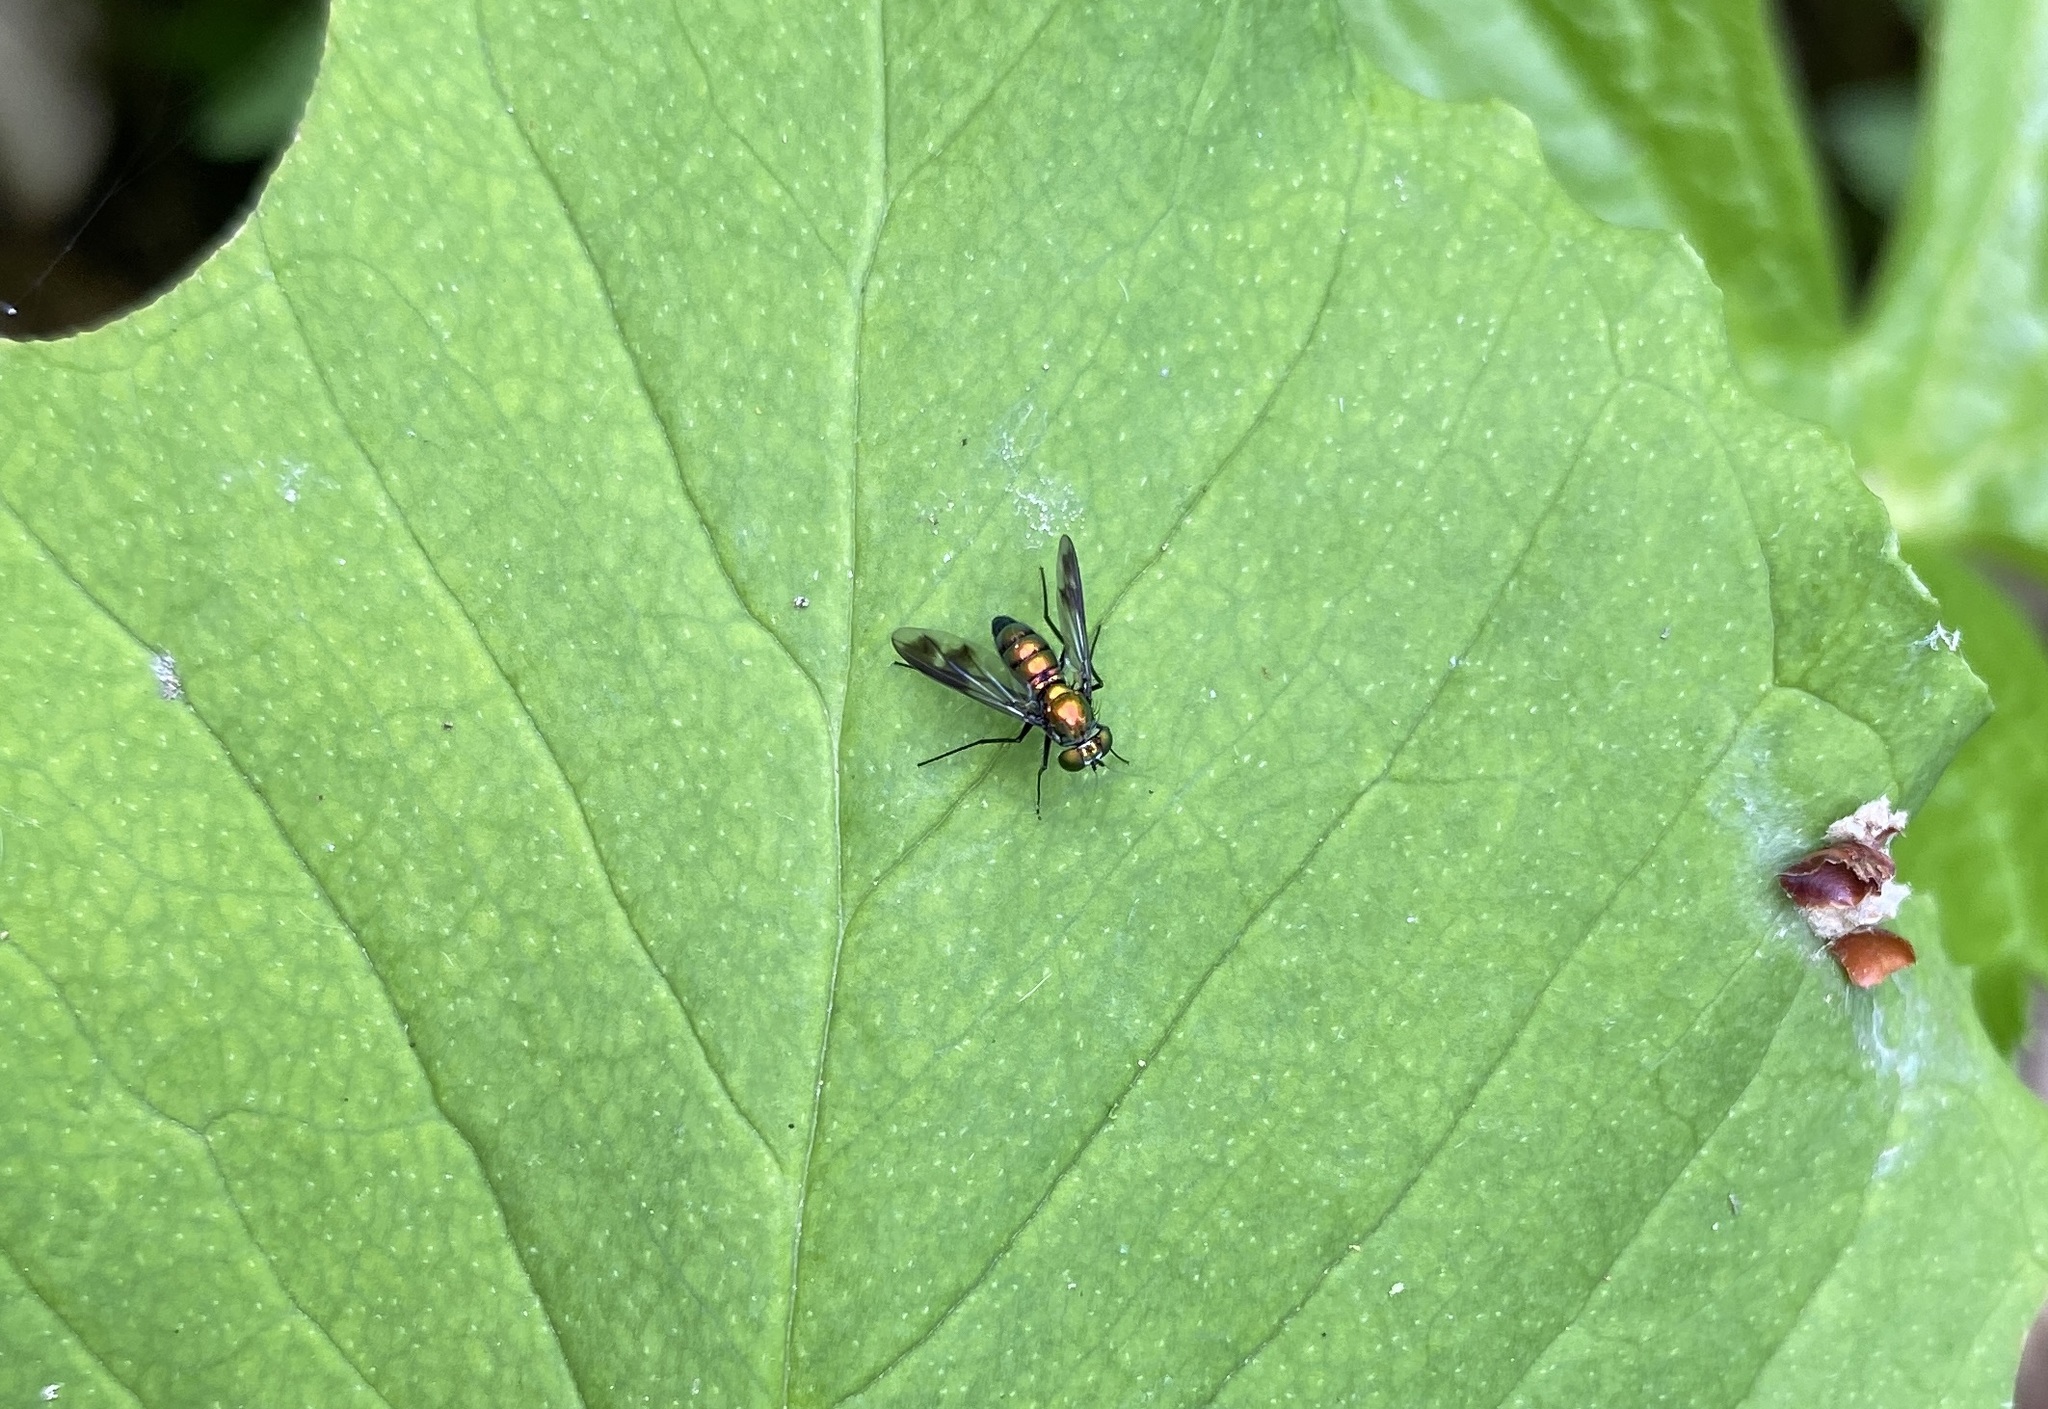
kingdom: Animalia
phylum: Arthropoda
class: Insecta
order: Diptera
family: Dolichopodidae
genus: Condylostylus
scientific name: Condylostylus patibulatus
